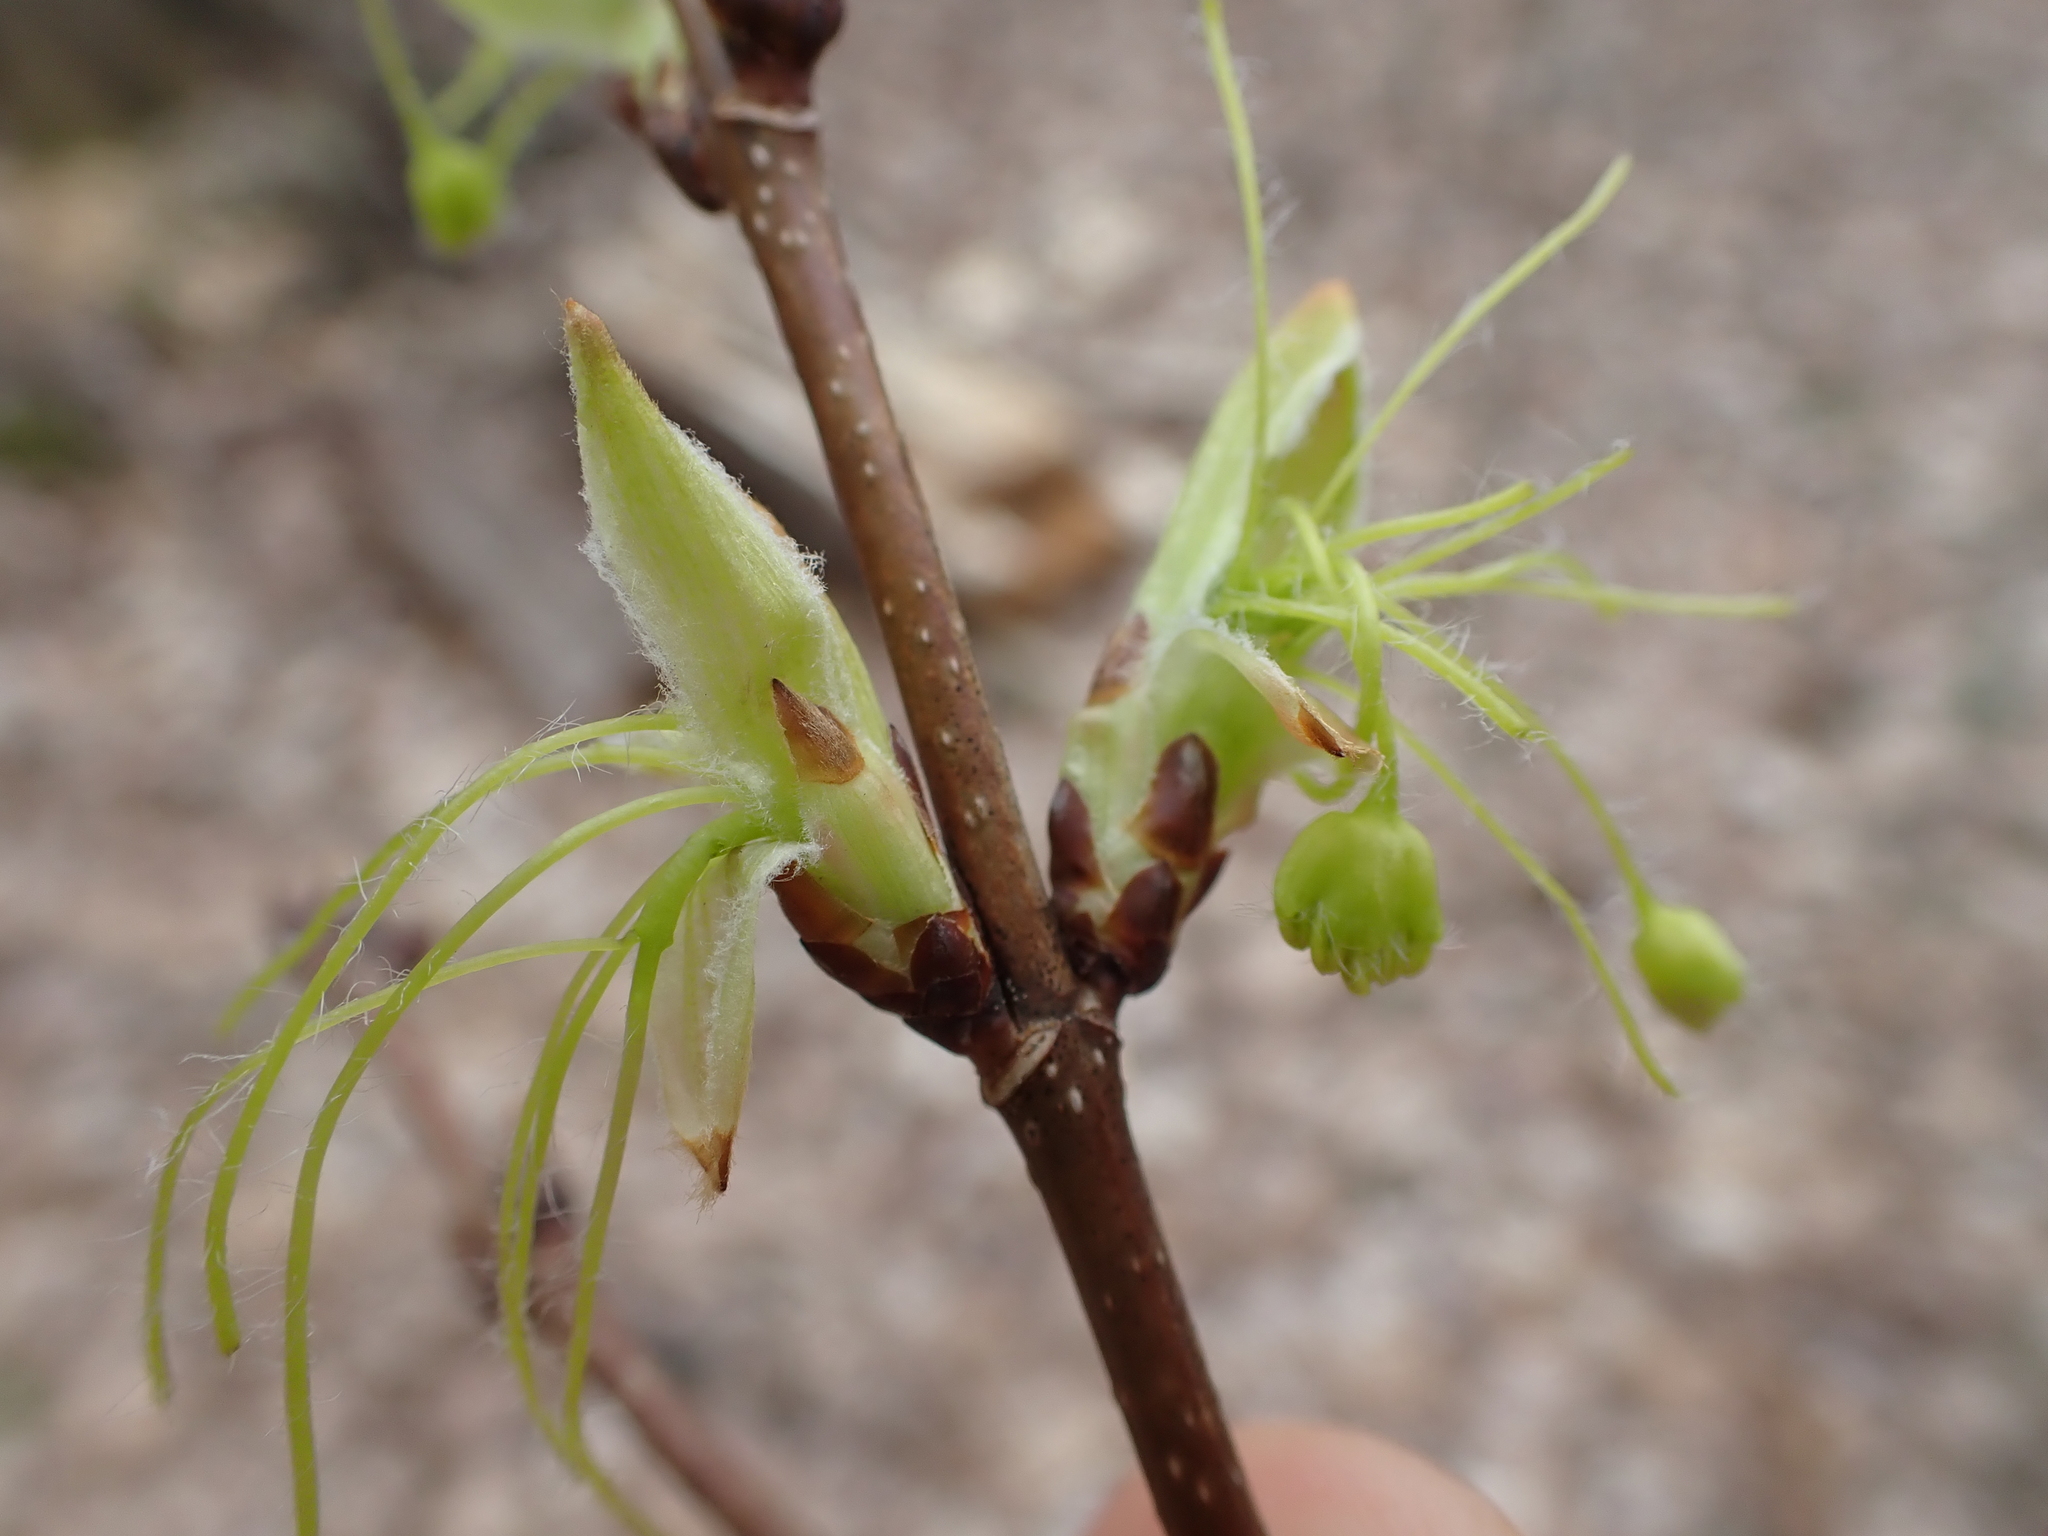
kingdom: Plantae
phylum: Tracheophyta
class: Magnoliopsida
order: Sapindales
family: Sapindaceae
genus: Acer
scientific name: Acer negundo
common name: Ashleaf maple
